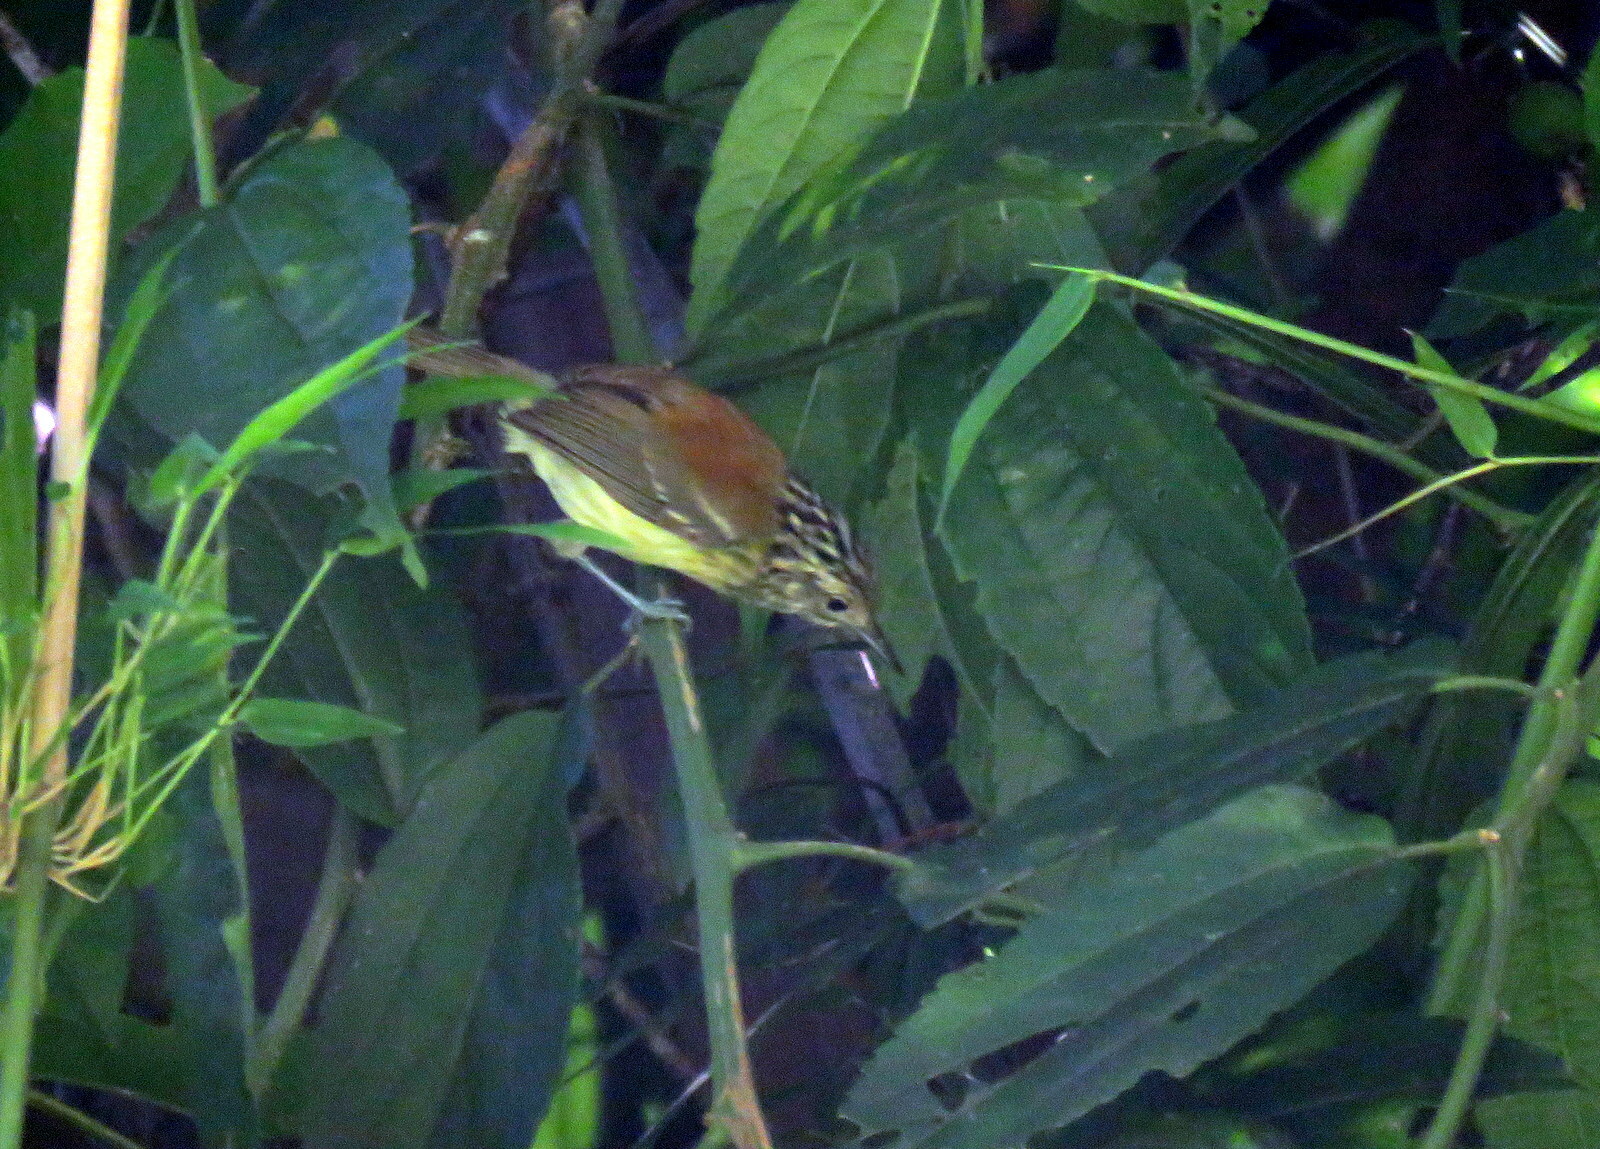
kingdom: Animalia
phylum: Chordata
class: Aves
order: Passeriformes
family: Thamnophilidae
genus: Terenura
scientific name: Terenura maculata
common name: Streak-capped antwren
